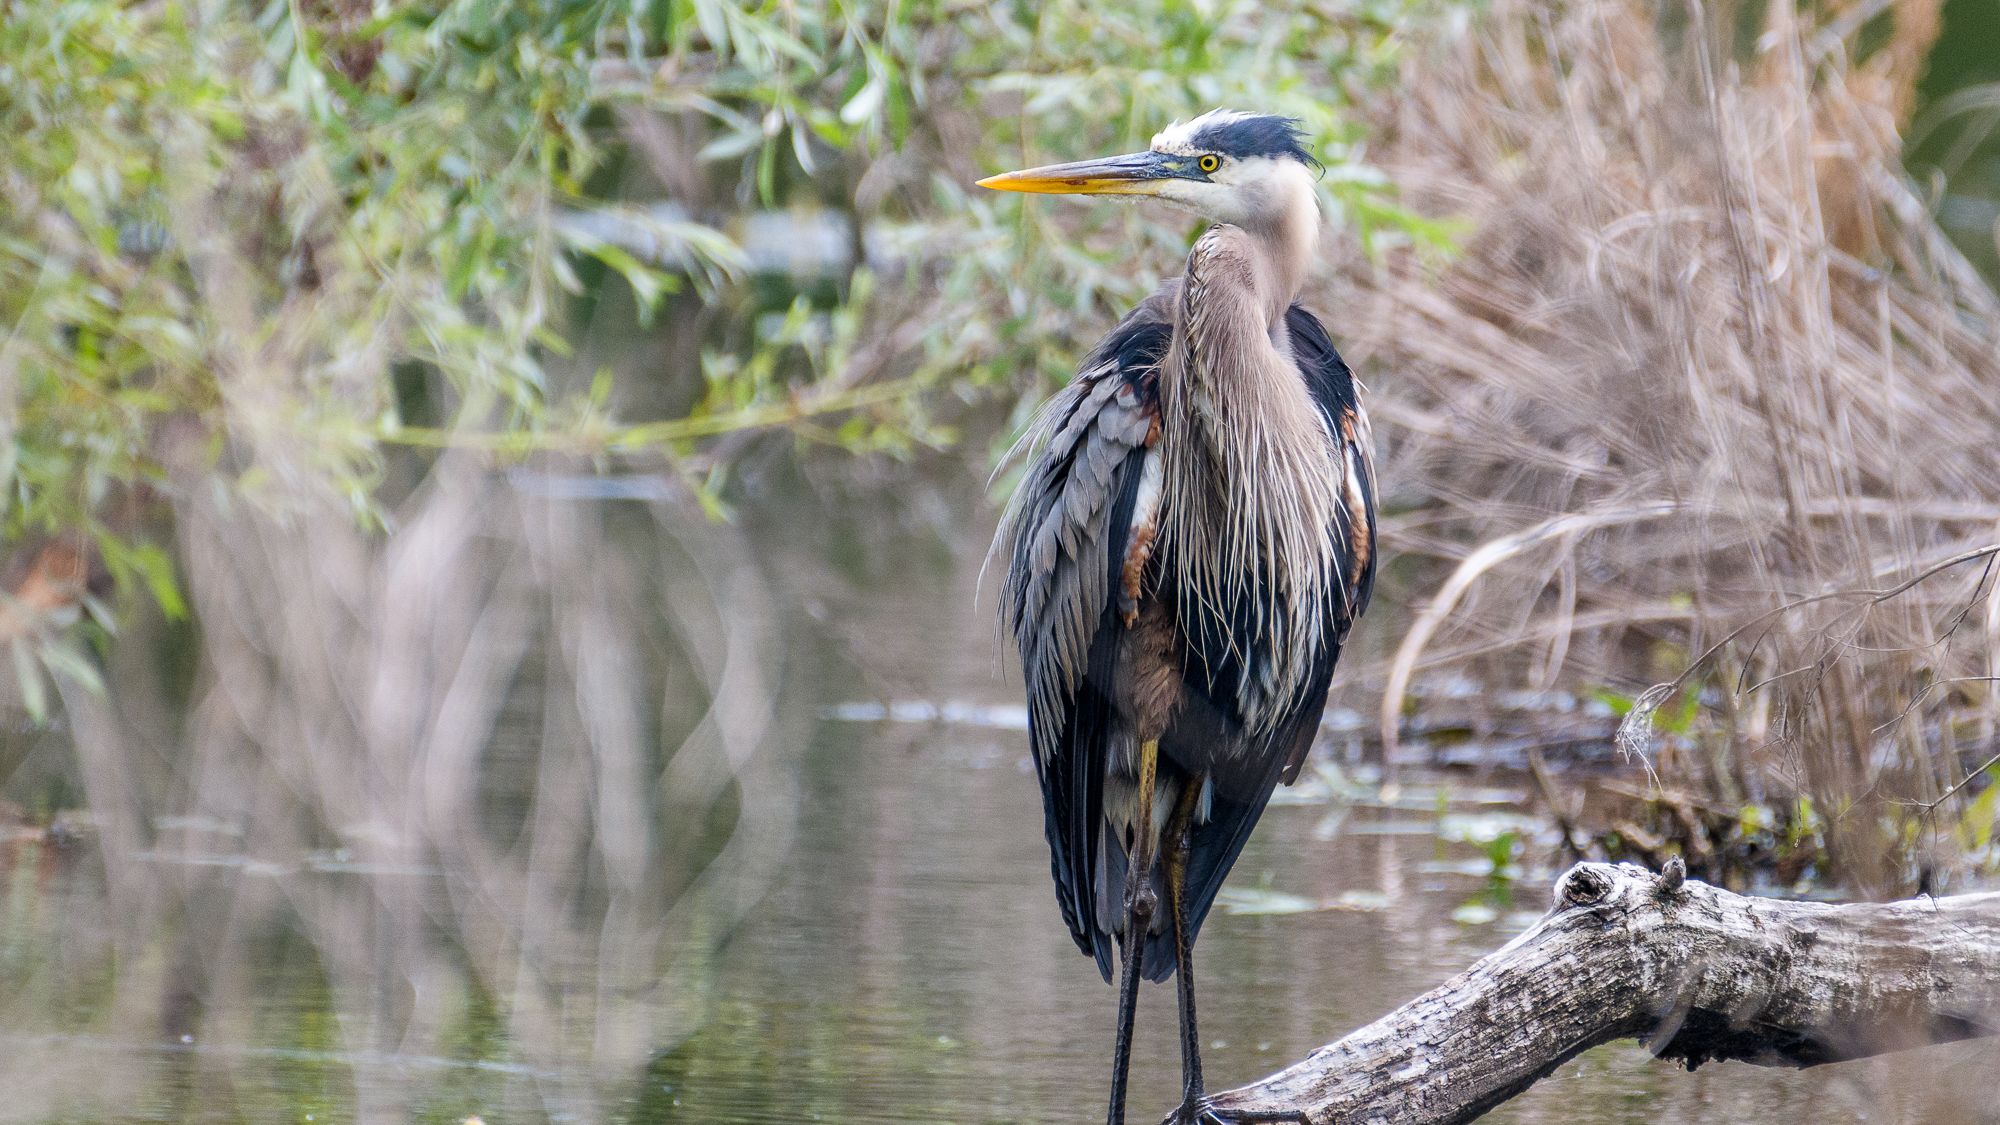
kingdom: Animalia
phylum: Chordata
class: Aves
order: Pelecaniformes
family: Ardeidae
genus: Ardea
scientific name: Ardea herodias
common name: Great blue heron
